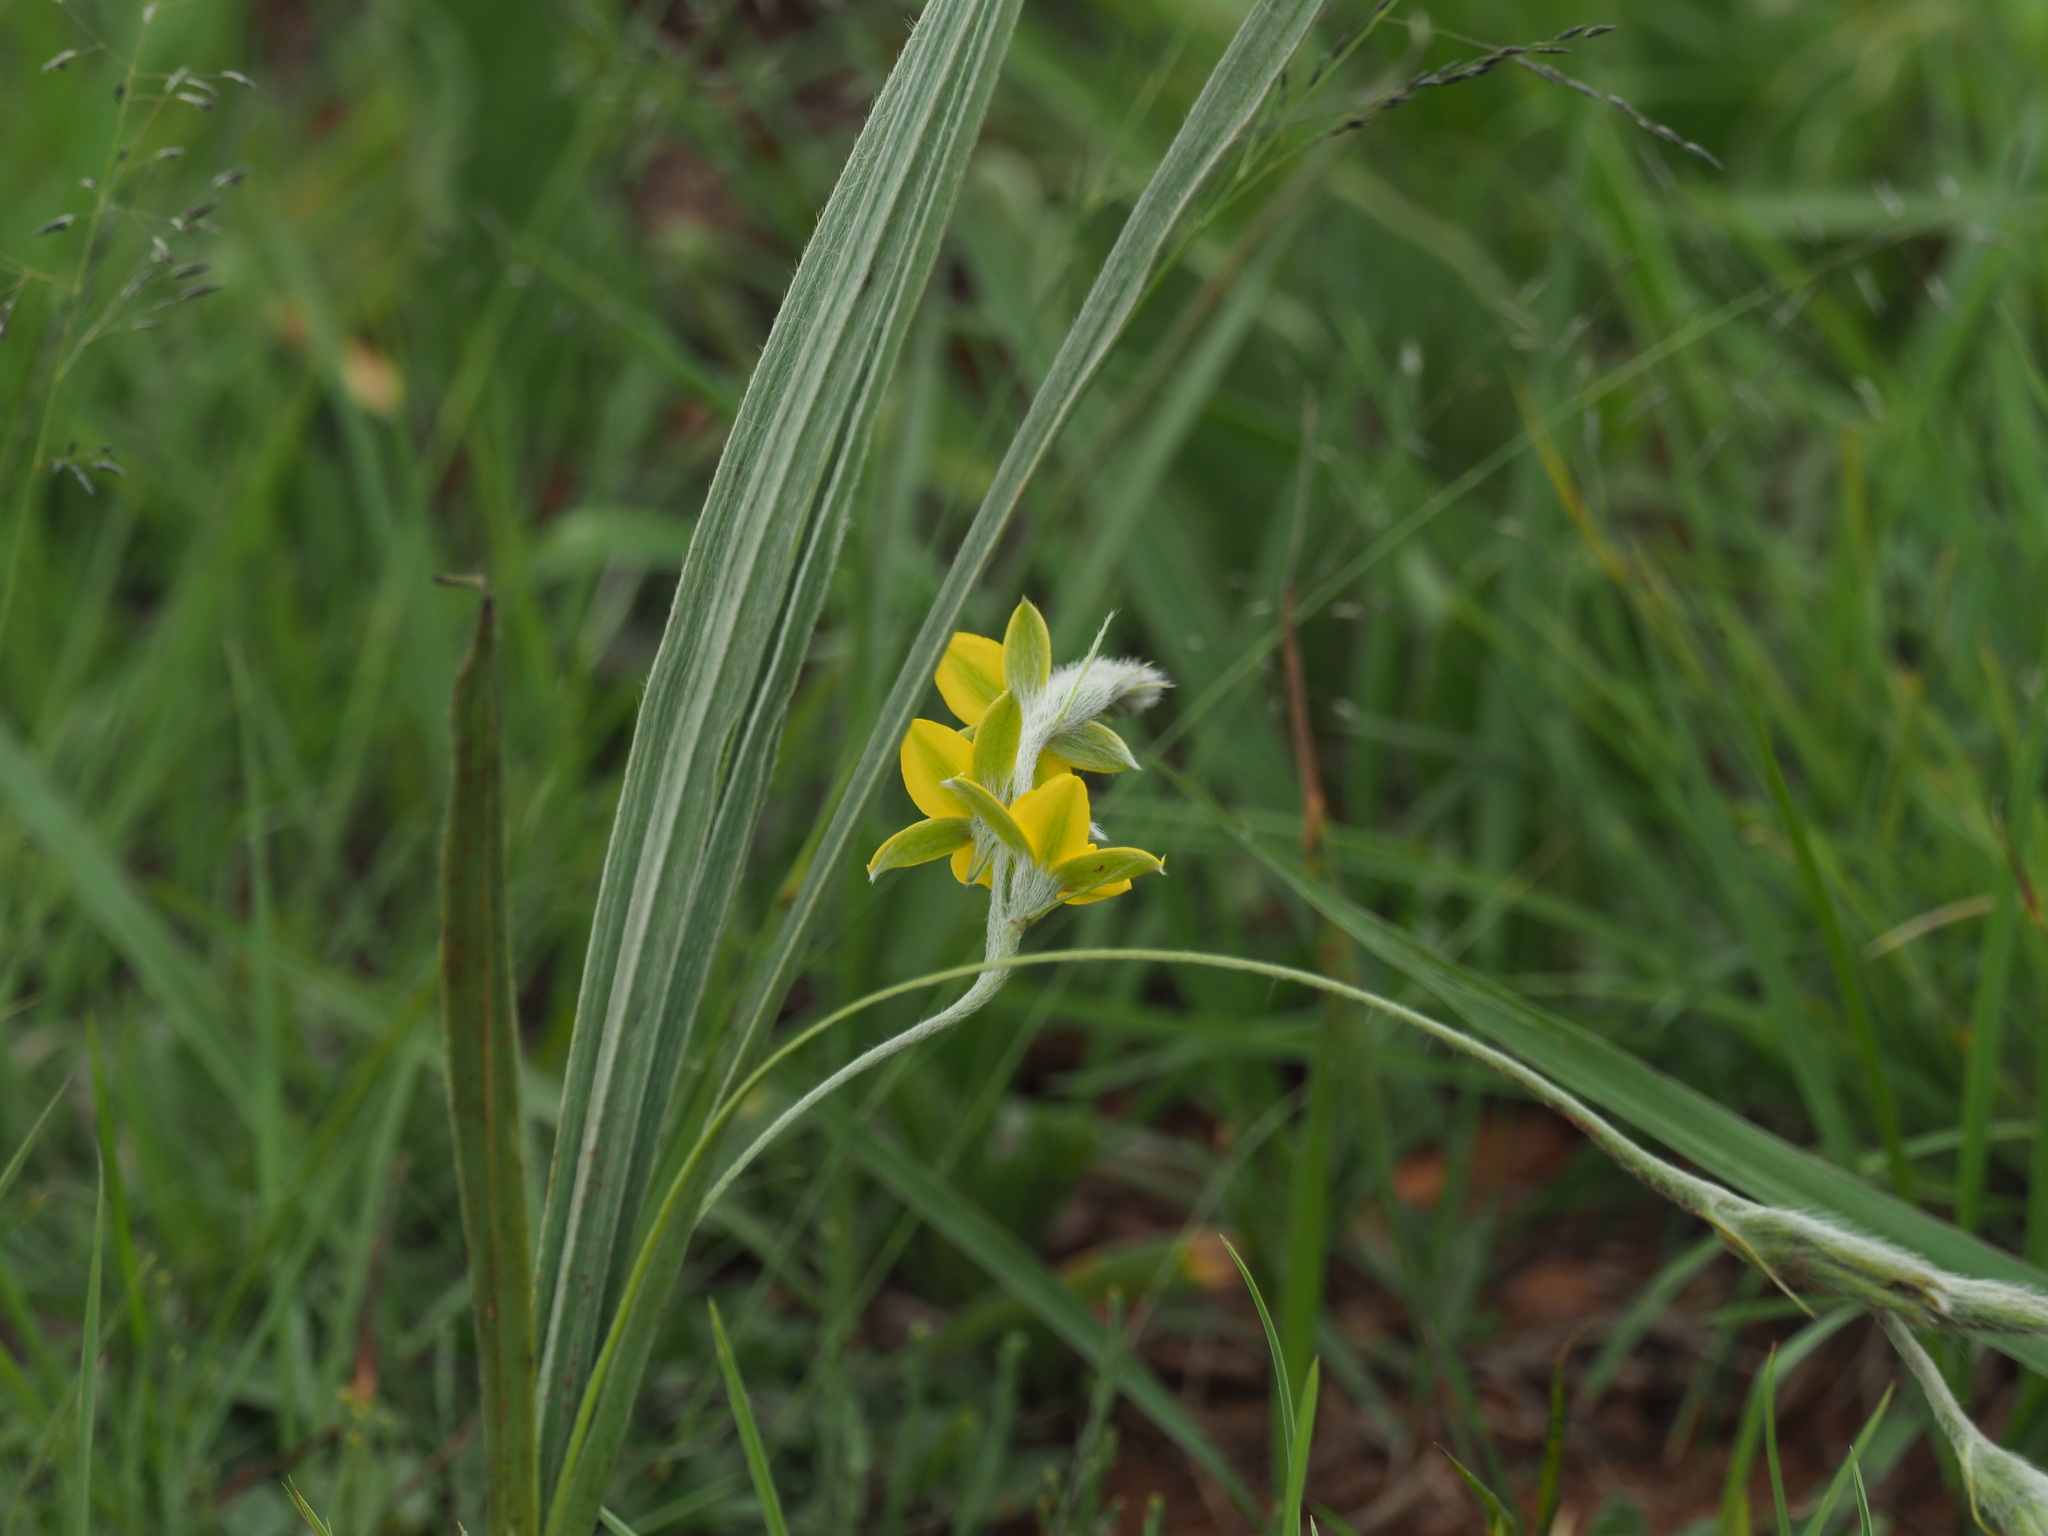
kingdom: Plantae
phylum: Tracheophyta
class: Liliopsida
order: Asparagales
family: Hypoxidaceae
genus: Hypoxis
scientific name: Hypoxis rigidula
